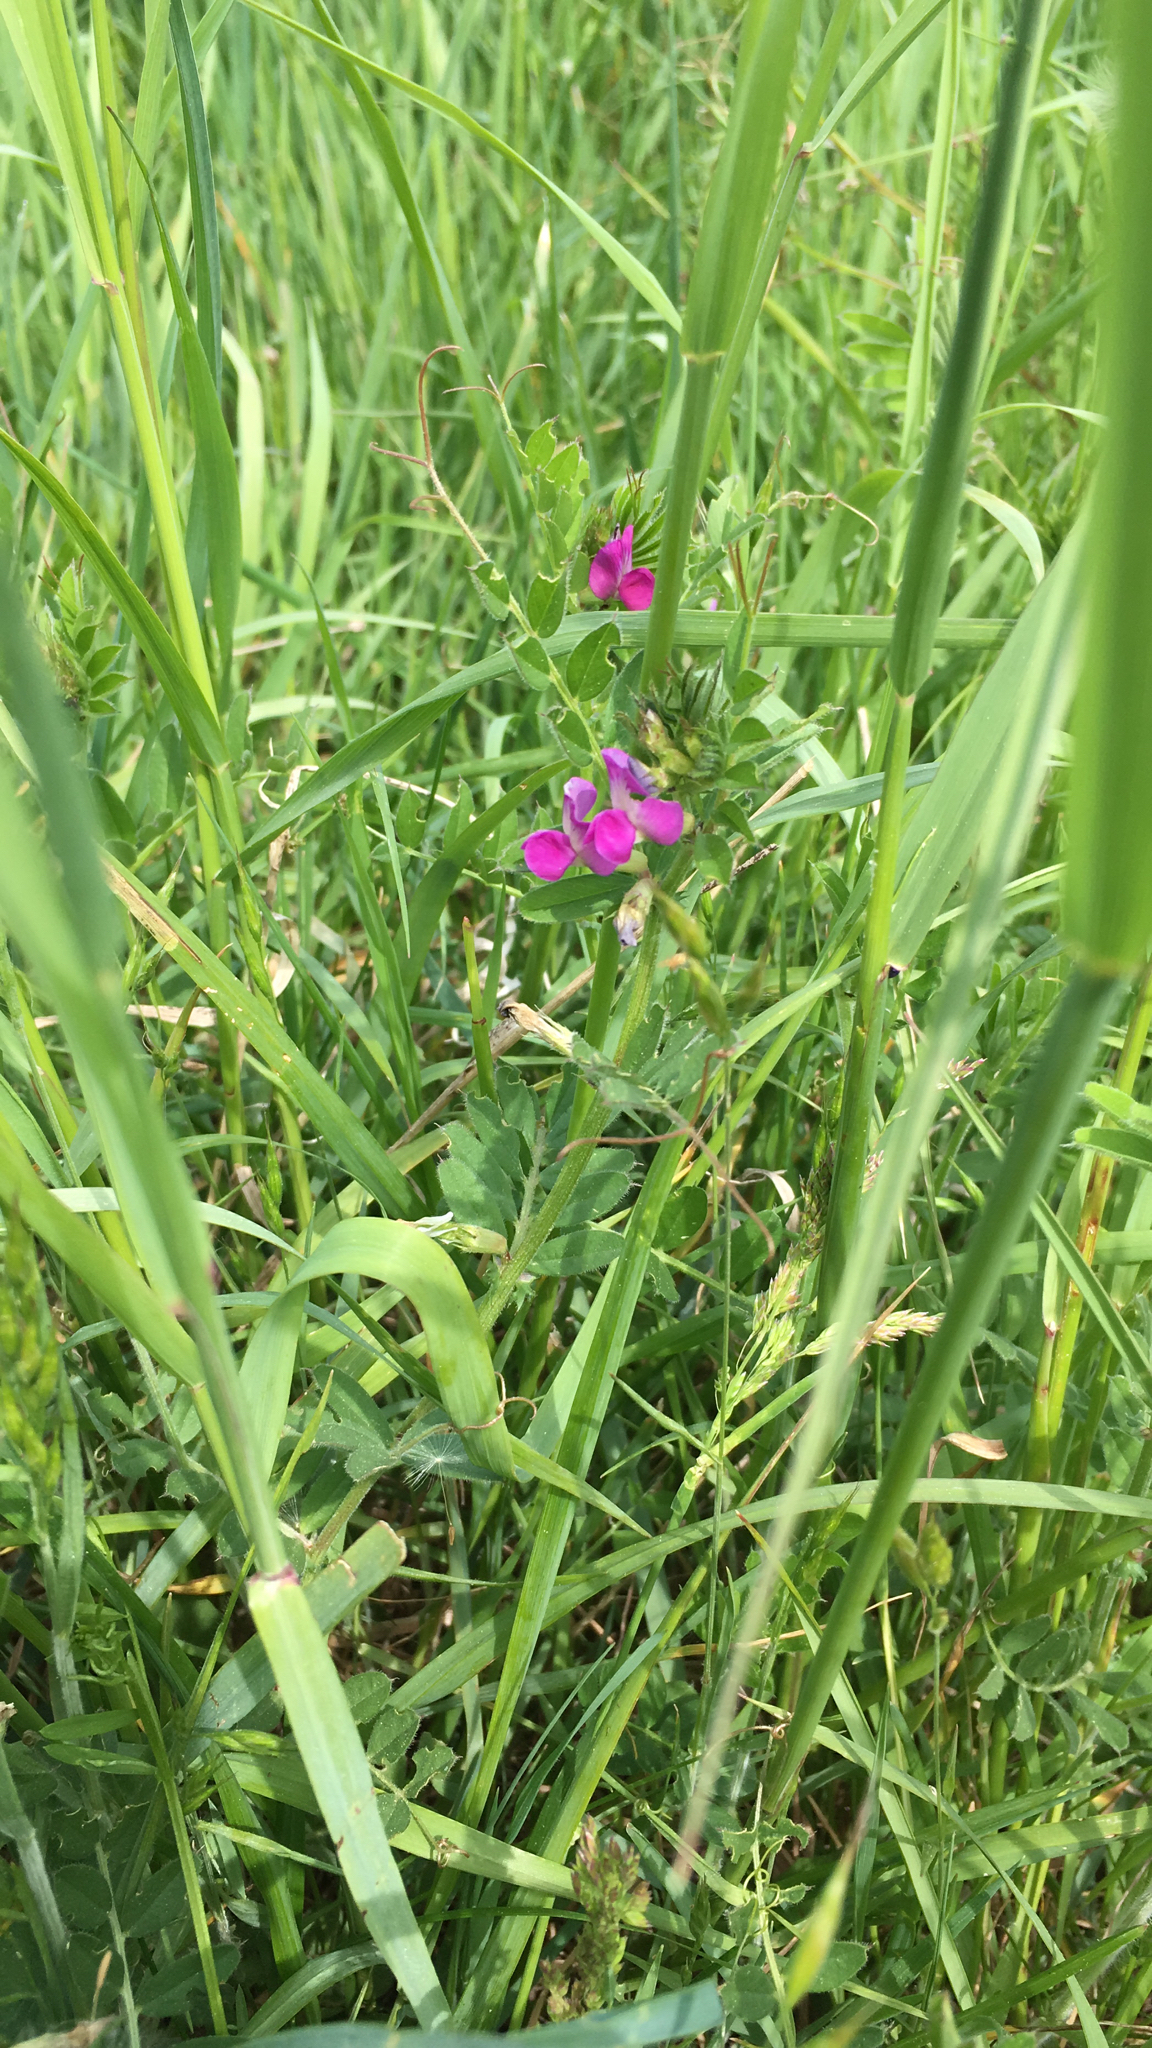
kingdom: Plantae
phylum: Tracheophyta
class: Magnoliopsida
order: Fabales
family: Fabaceae
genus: Vicia
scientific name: Vicia sativa
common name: Garden vetch
